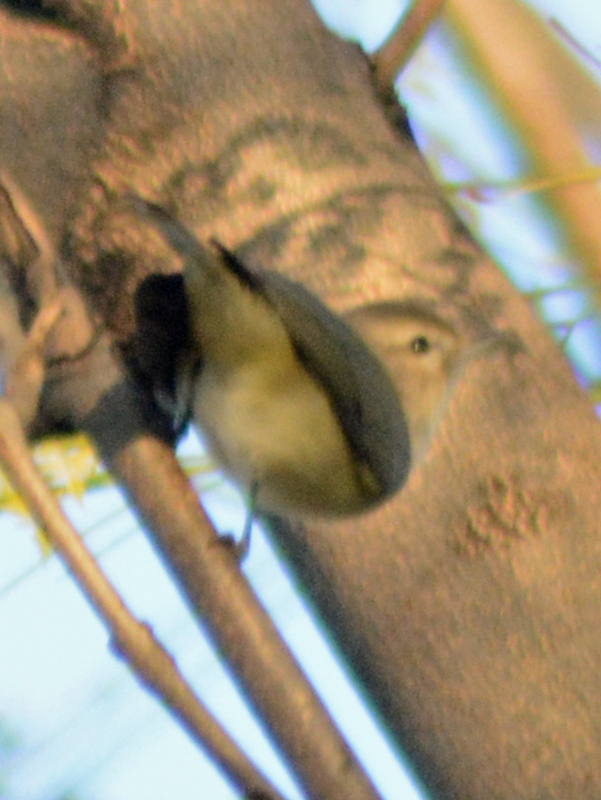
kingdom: Animalia
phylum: Chordata
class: Aves
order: Passeriformes
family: Vireonidae
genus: Vireo
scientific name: Vireo gilvus
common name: Warbling vireo
